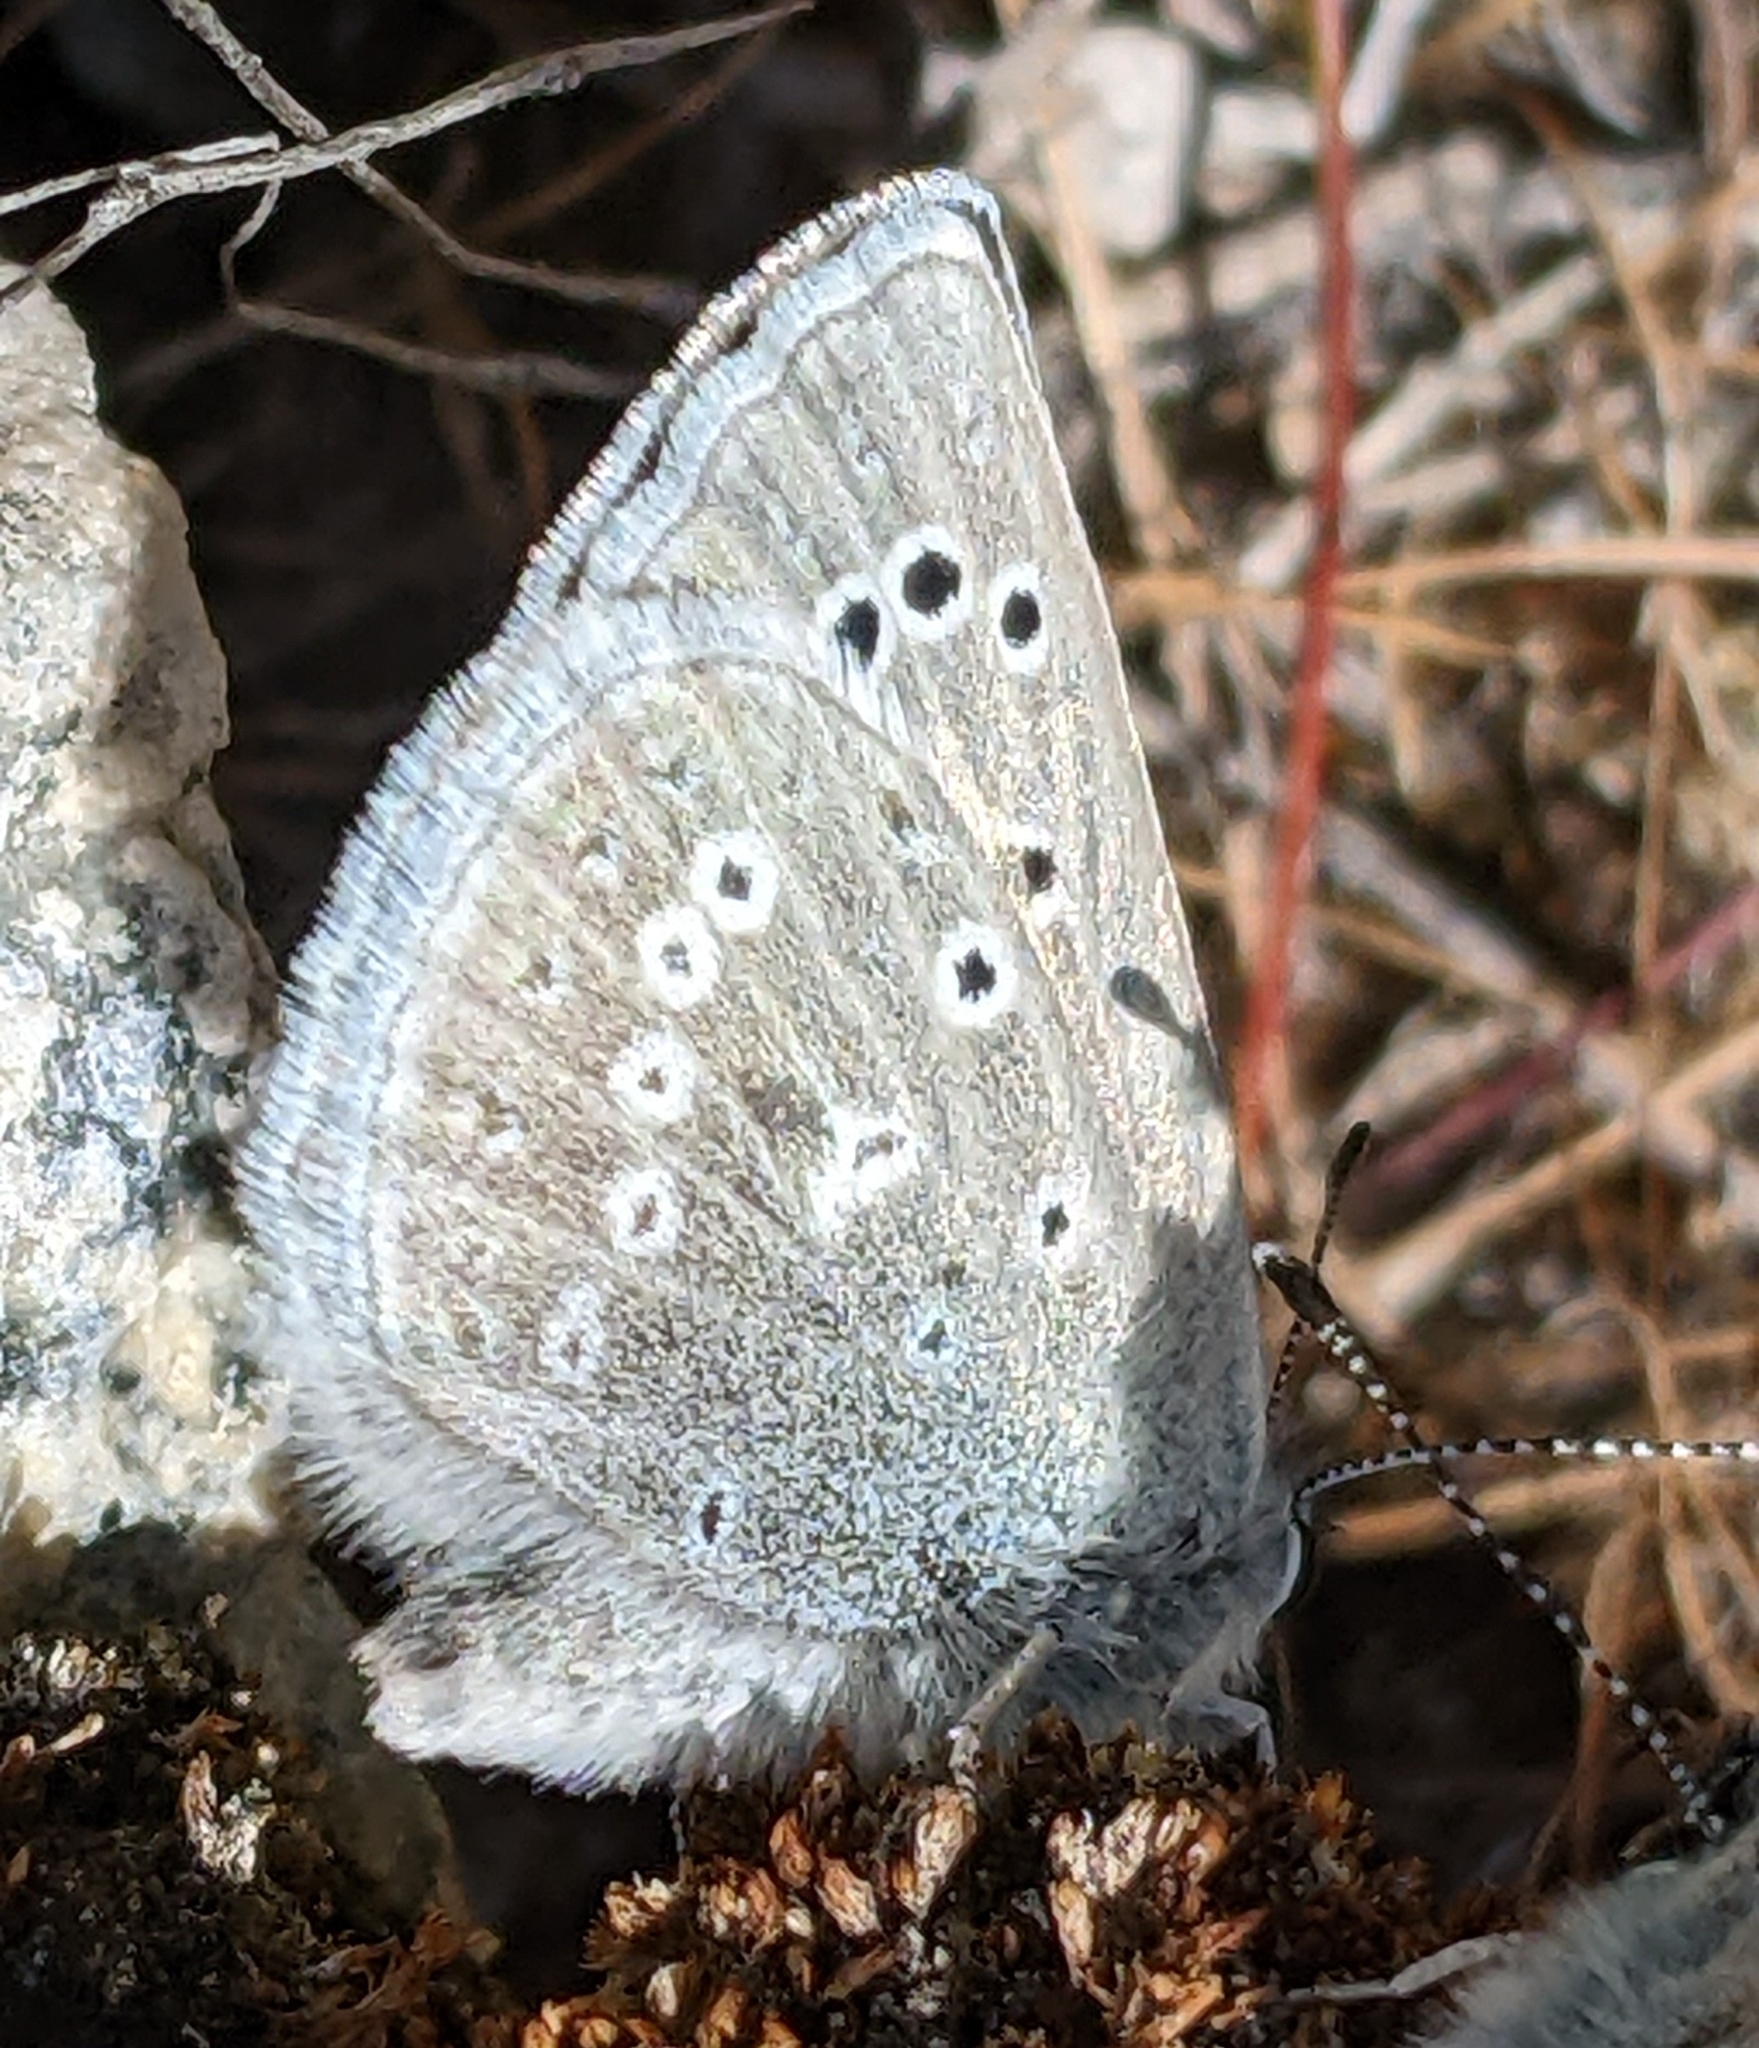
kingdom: Animalia
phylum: Arthropoda
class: Insecta
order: Lepidoptera
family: Lycaenidae
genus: Icaricia
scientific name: Icaricia icarioides
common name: Boisduval's blue
